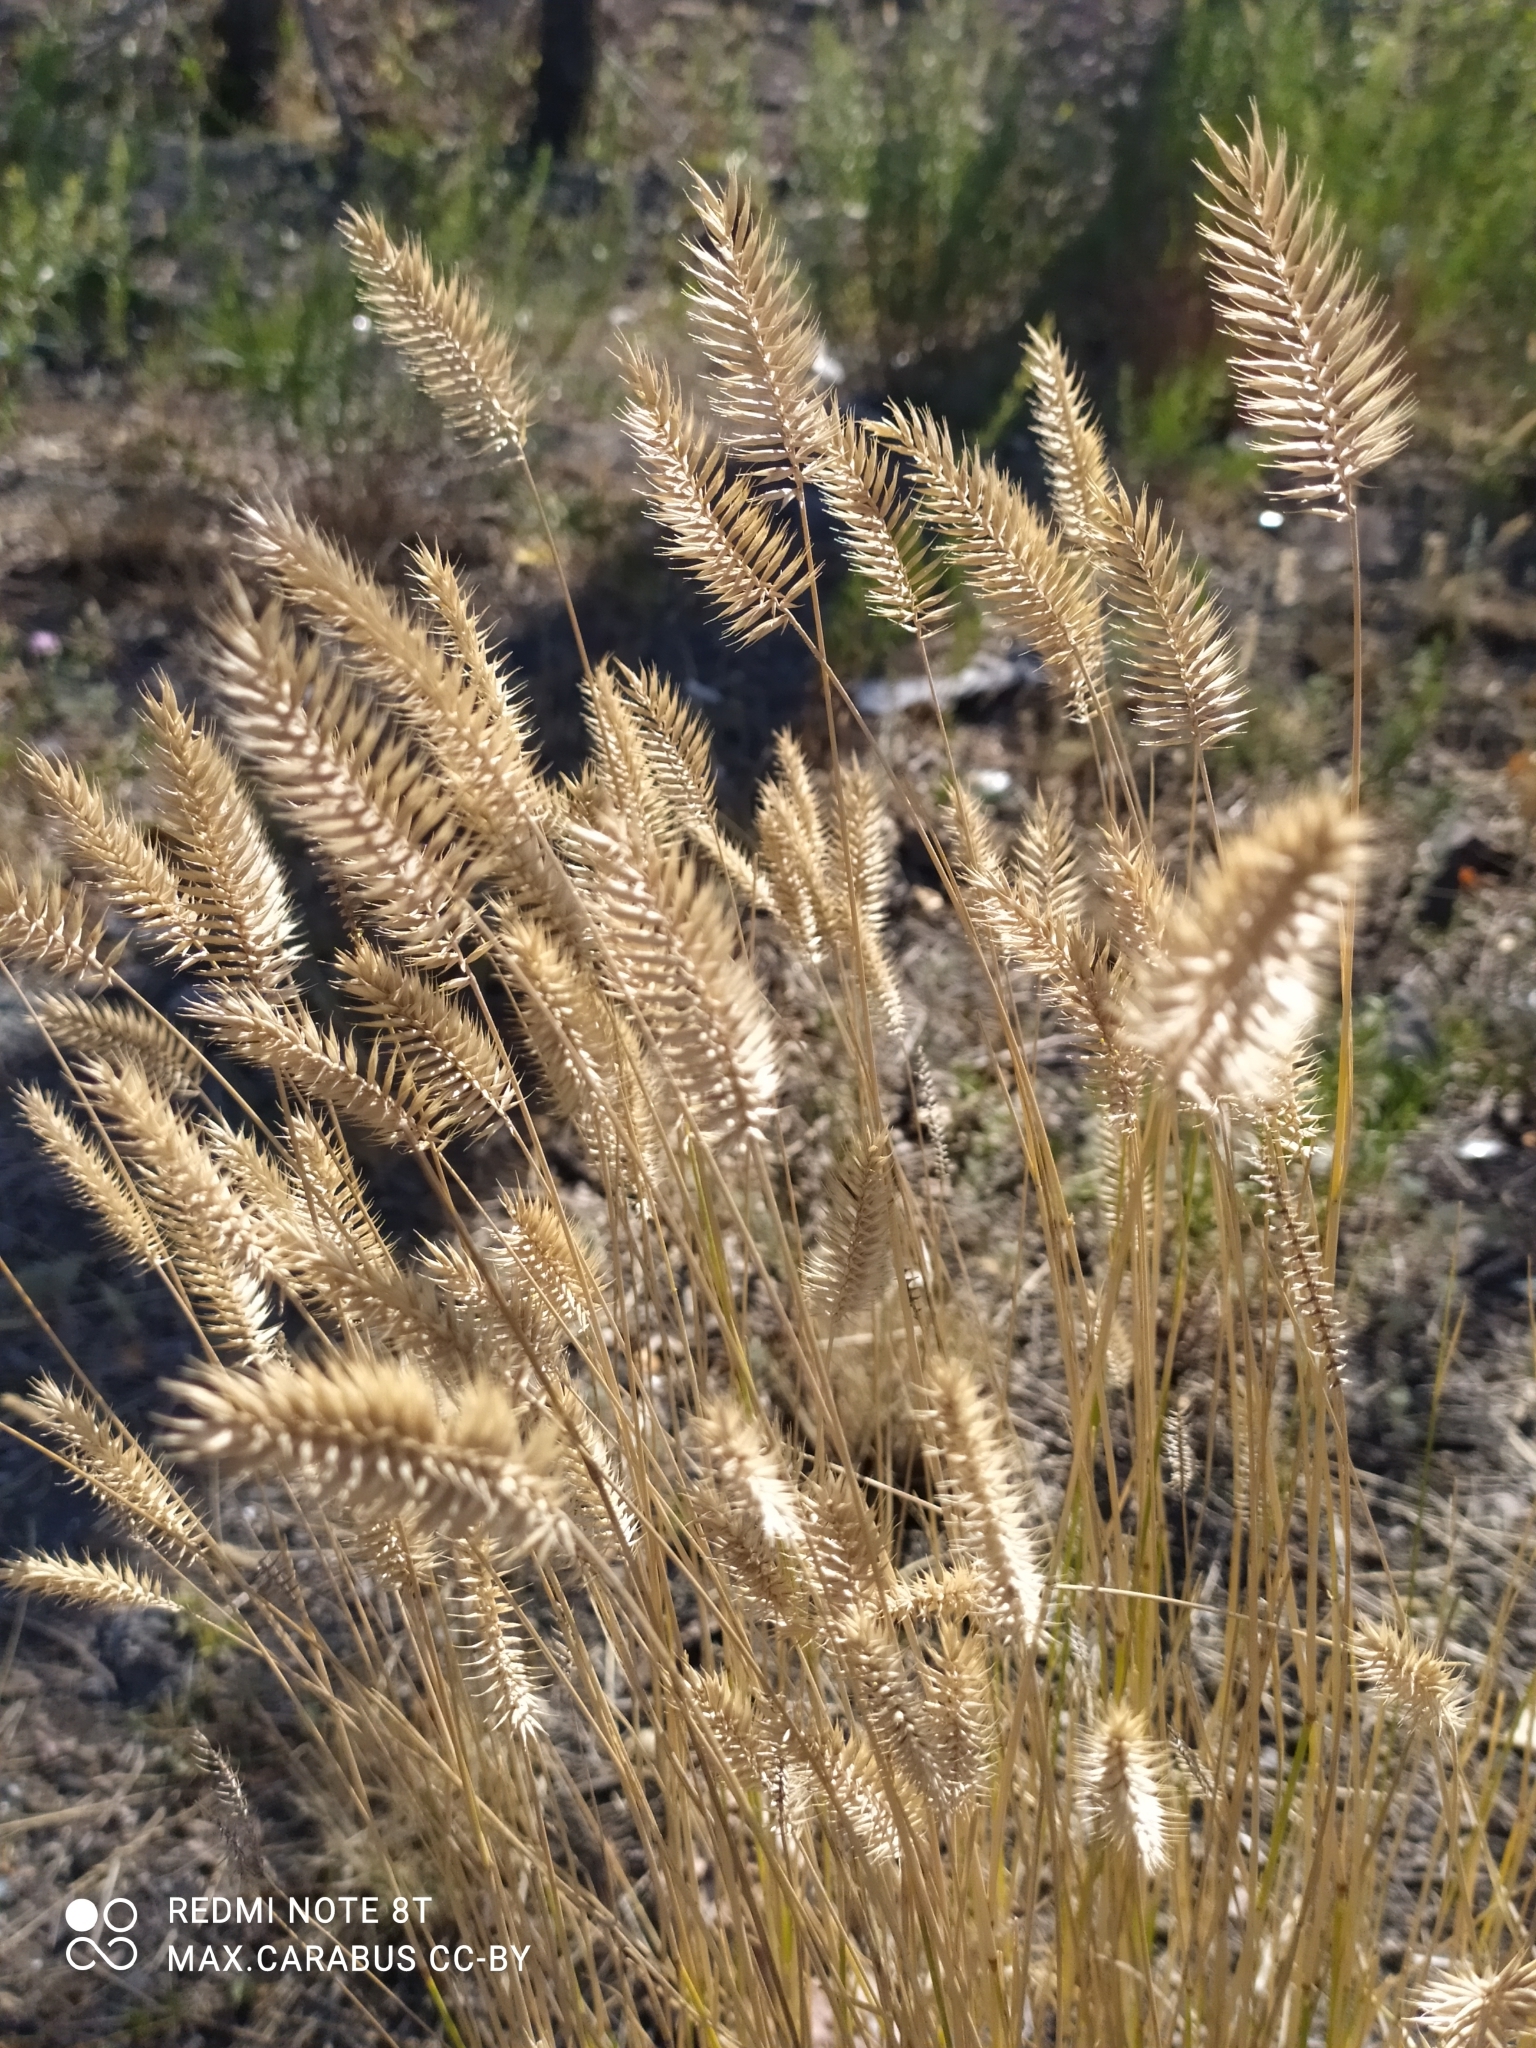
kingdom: Plantae
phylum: Tracheophyta
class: Liliopsida
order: Poales
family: Poaceae
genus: Agropyron
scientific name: Agropyron cristatum
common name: Crested wheatgrass
